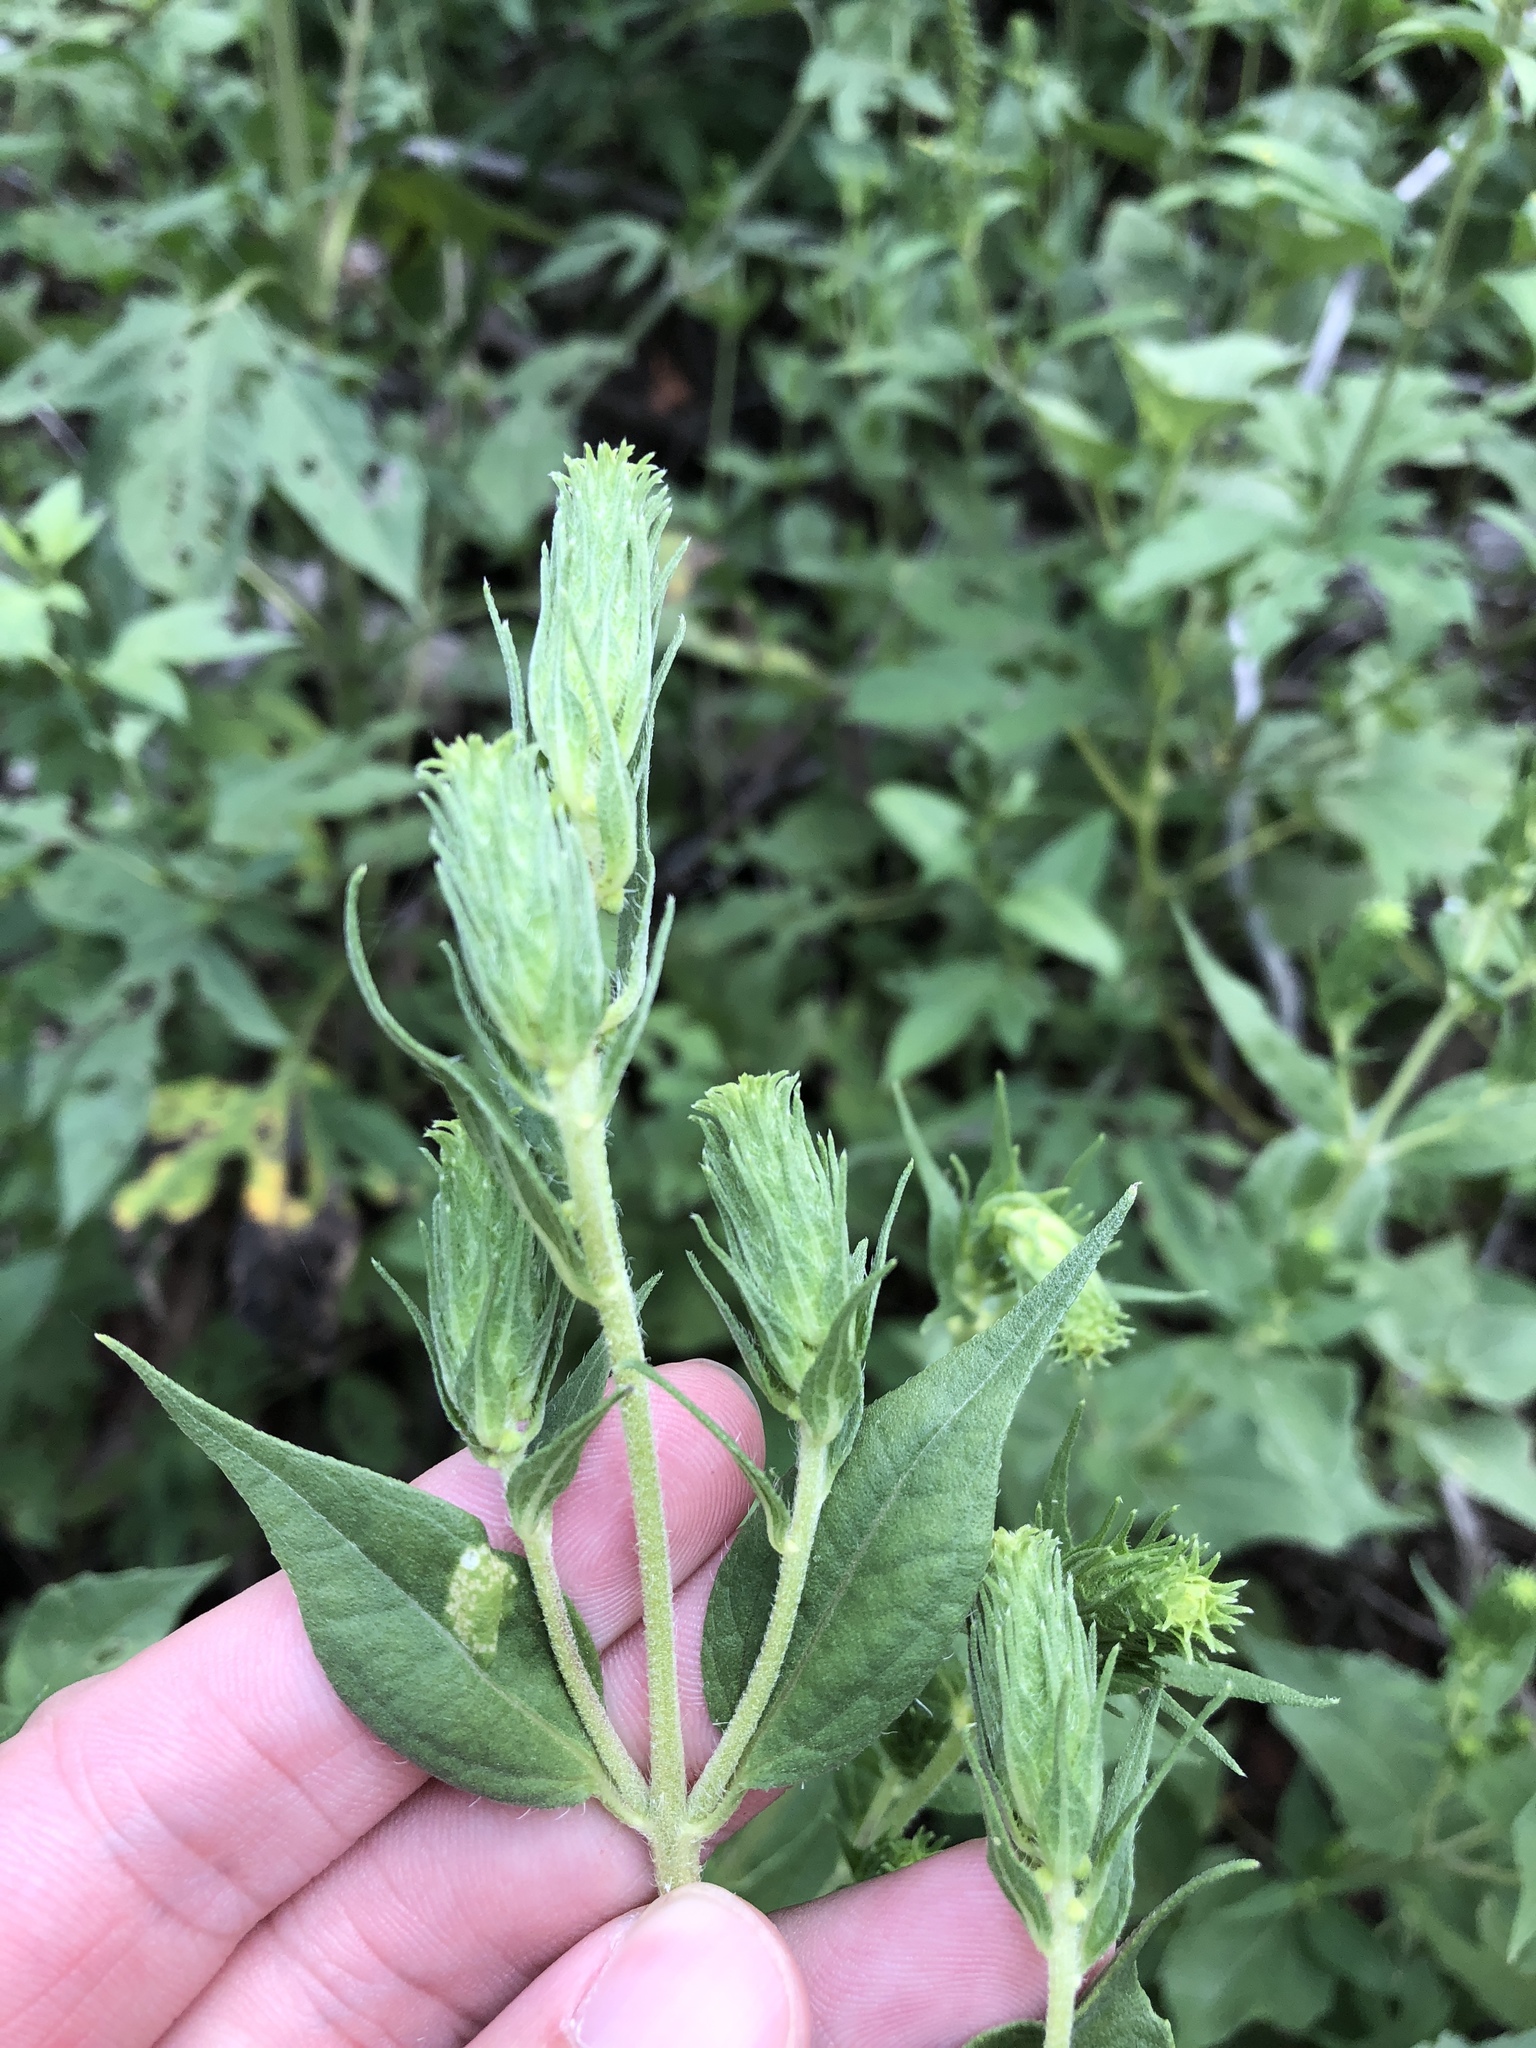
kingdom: Plantae
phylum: Tracheophyta
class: Magnoliopsida
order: Asterales
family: Asteraceae
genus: Iva
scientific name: Iva annua
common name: Marsh-elder
